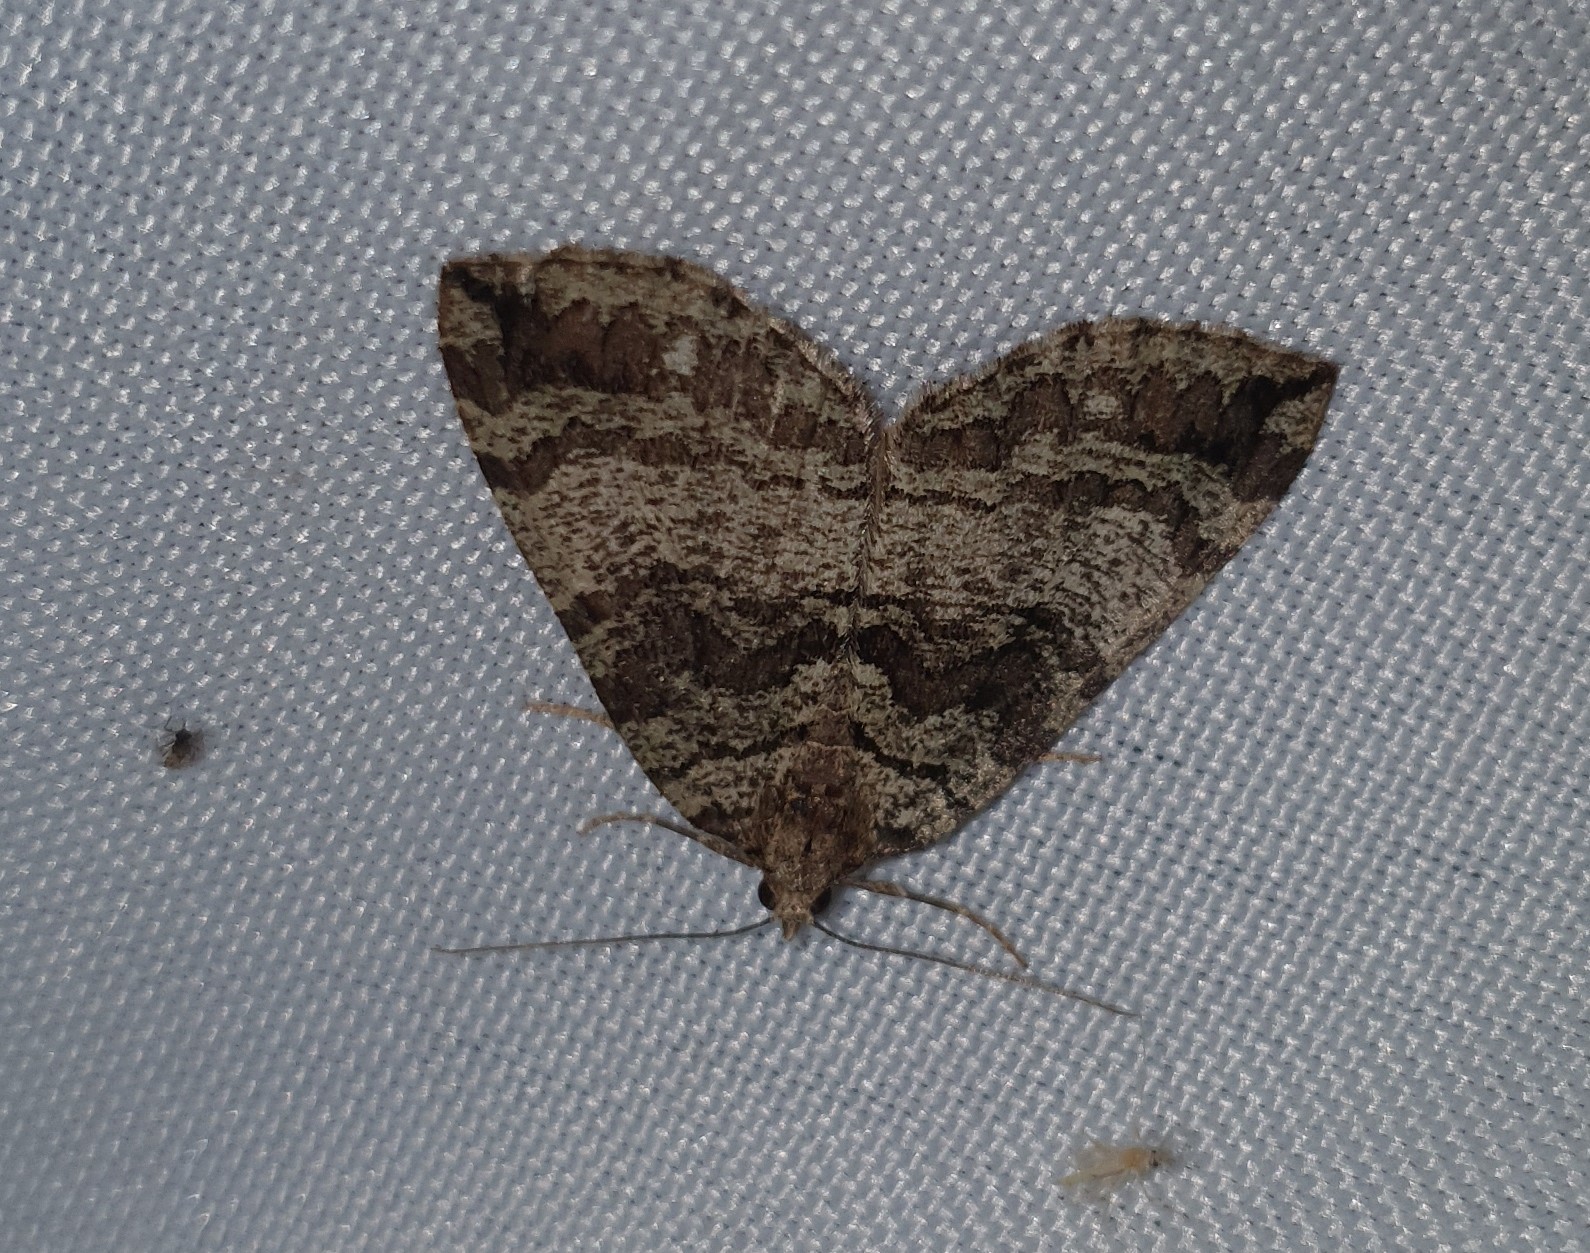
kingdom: Animalia
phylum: Arthropoda
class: Insecta
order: Lepidoptera
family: Geometridae
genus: Hydriomena
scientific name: Hydriomena furcata
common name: July highflyer
